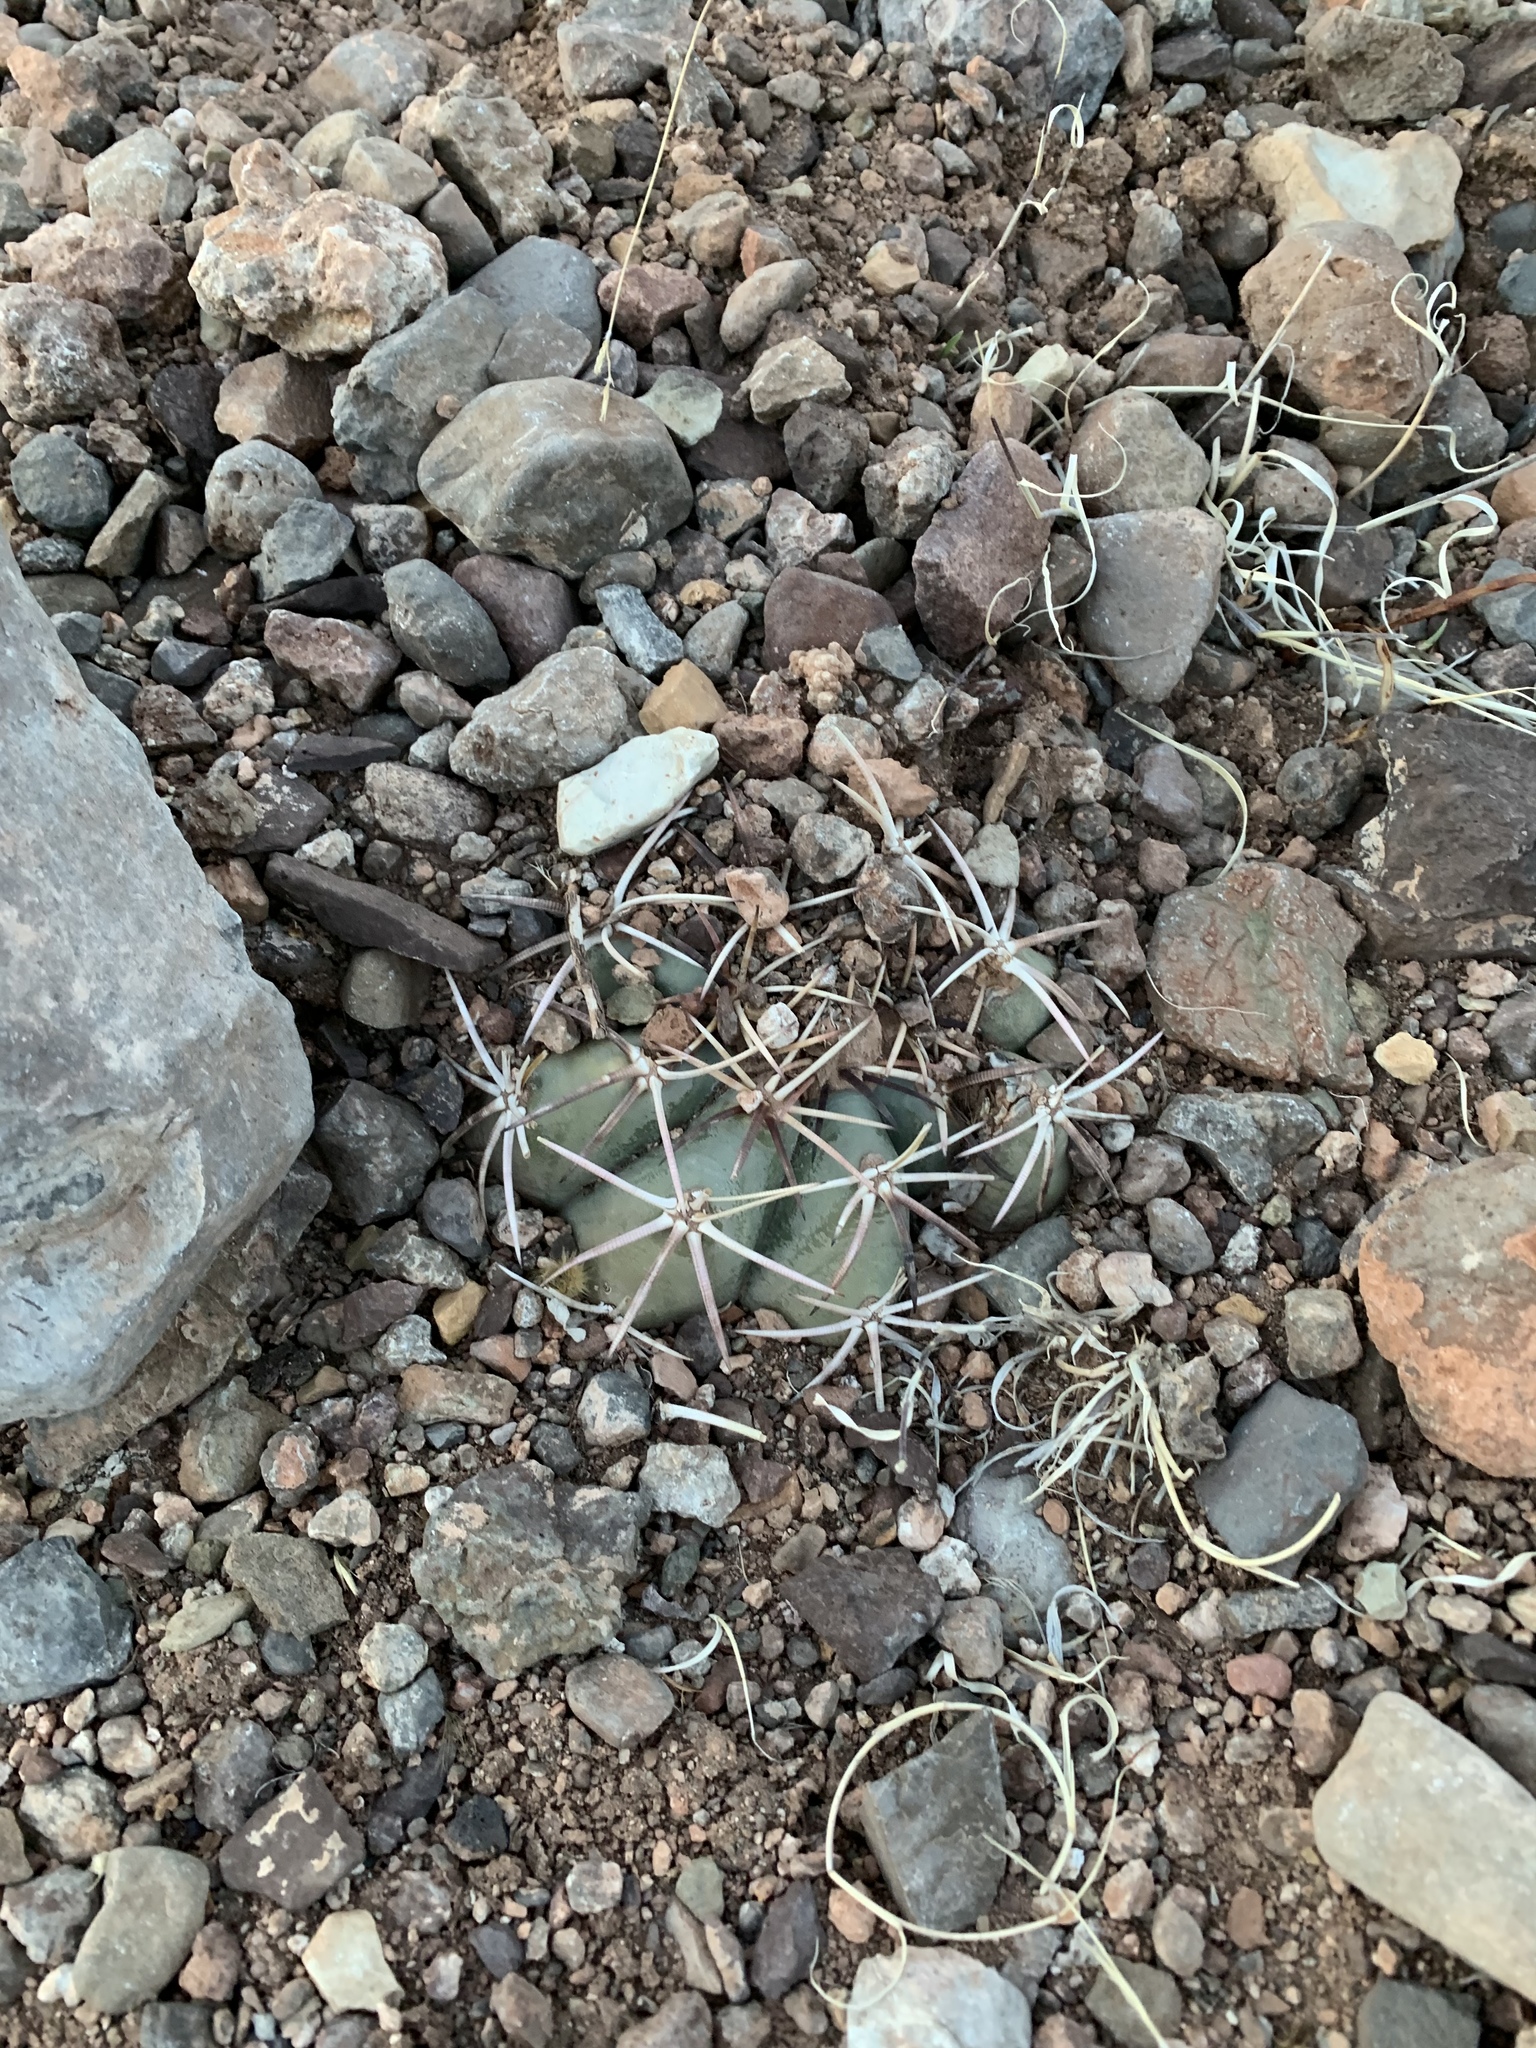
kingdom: Plantae
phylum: Tracheophyta
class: Magnoliopsida
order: Caryophyllales
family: Cactaceae
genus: Echinocactus
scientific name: Echinocactus horizonthalonius
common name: Devilshead
